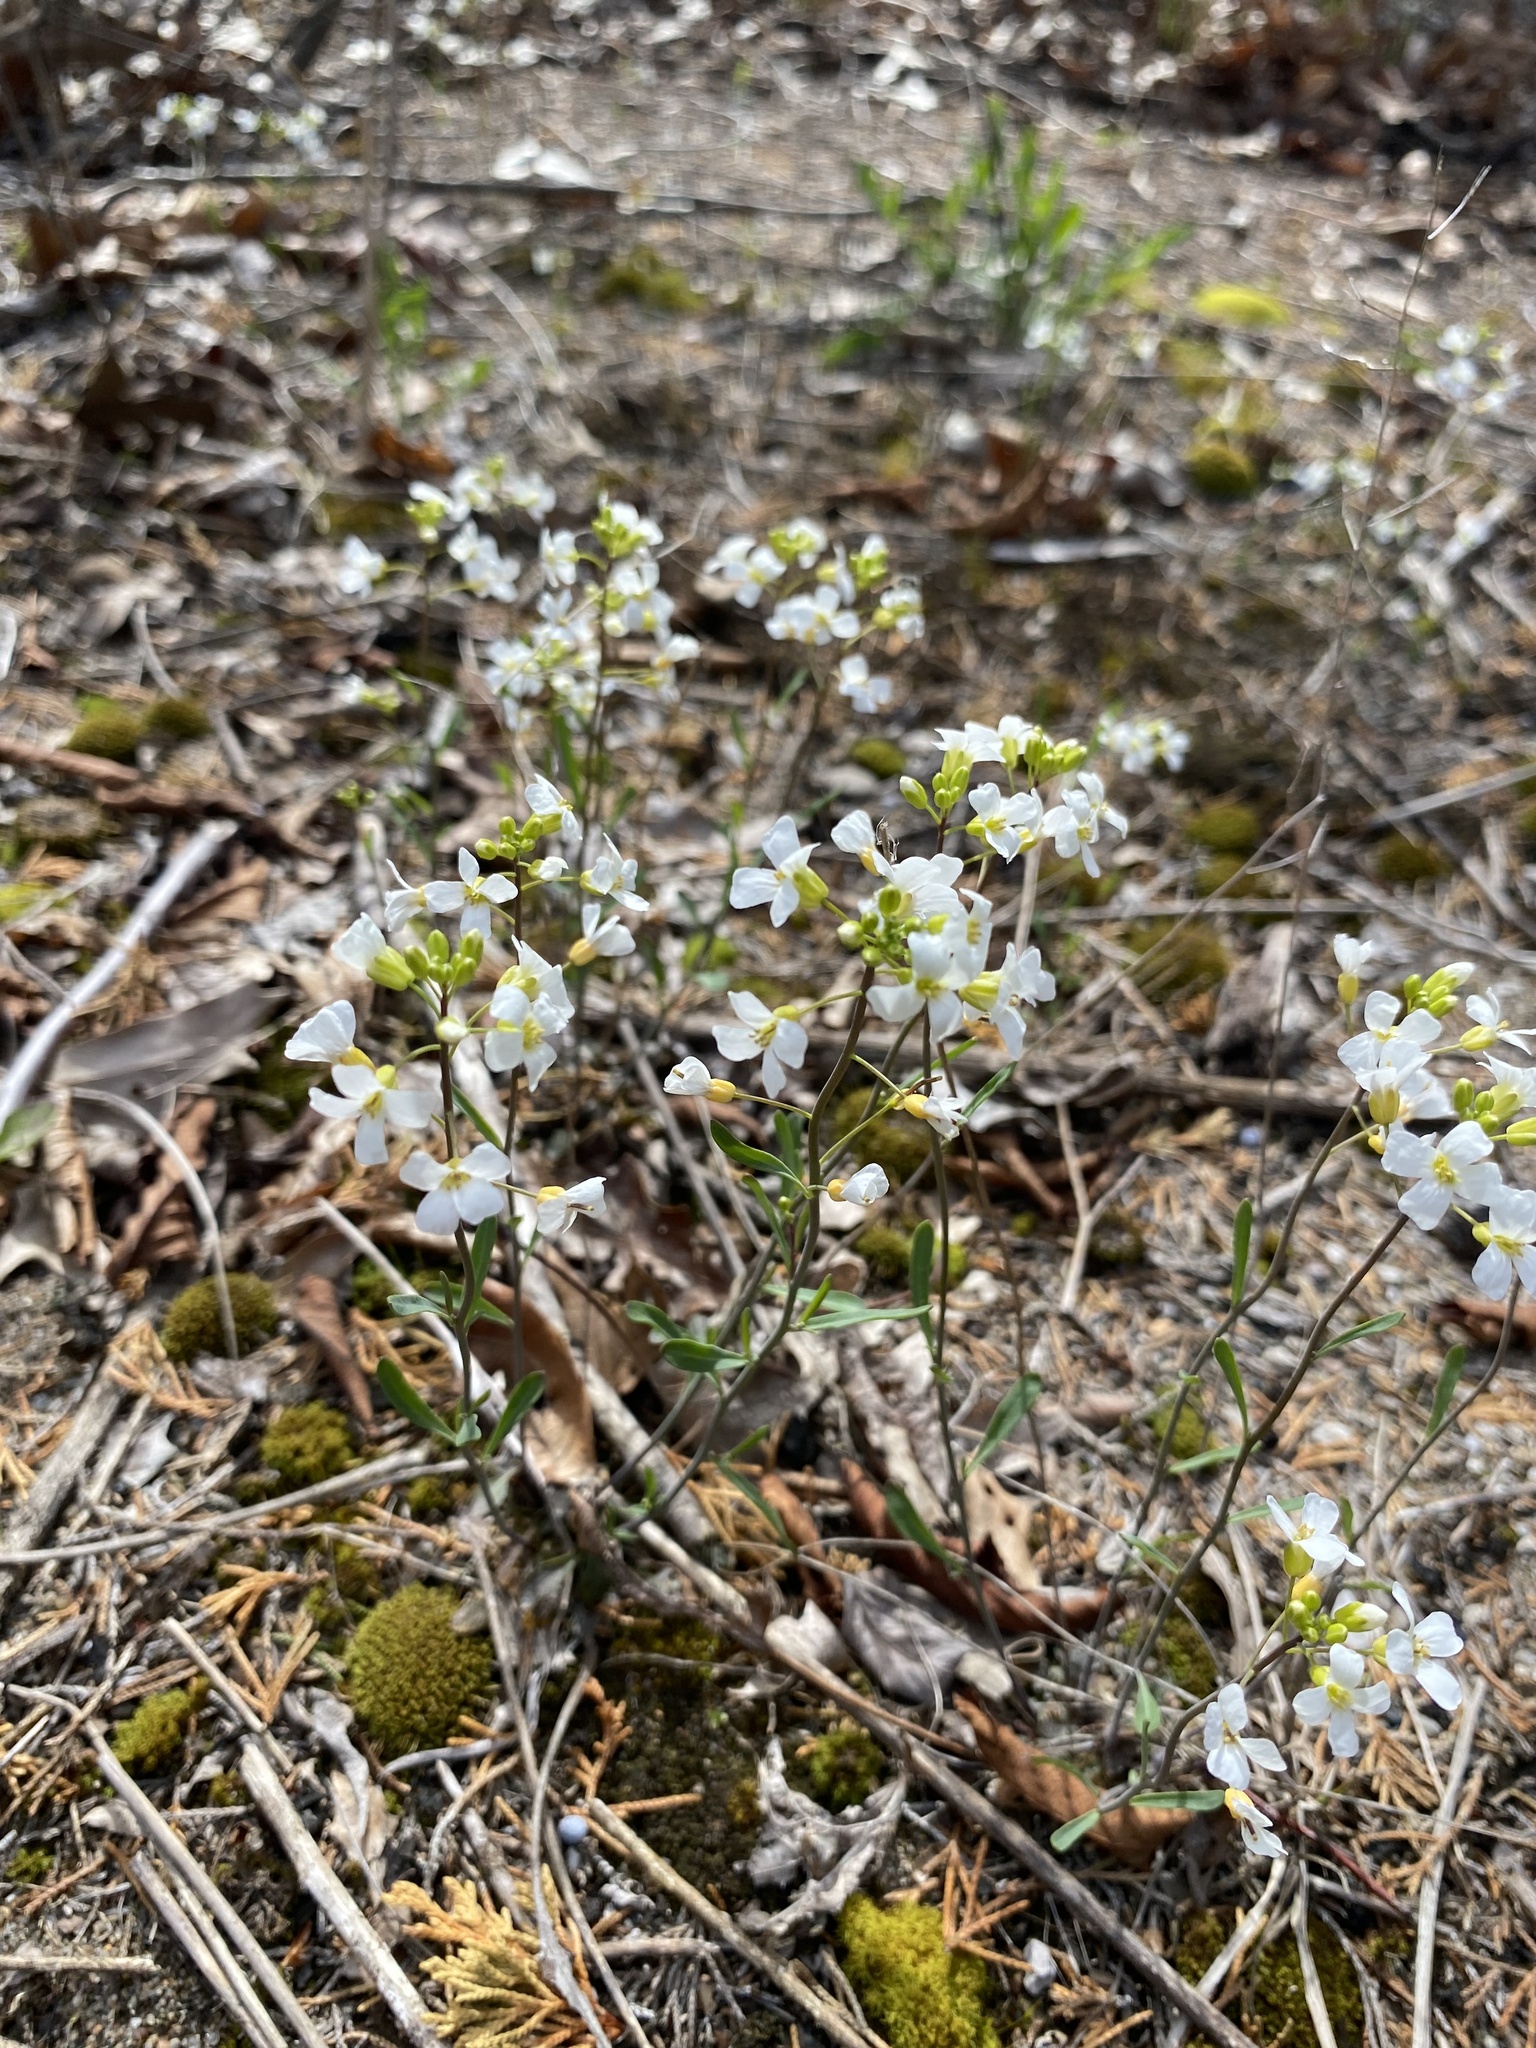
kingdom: Plantae
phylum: Tracheophyta
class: Magnoliopsida
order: Brassicales
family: Brassicaceae
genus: Arabidopsis
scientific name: Arabidopsis lyrata
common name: Lyrate rockcress
